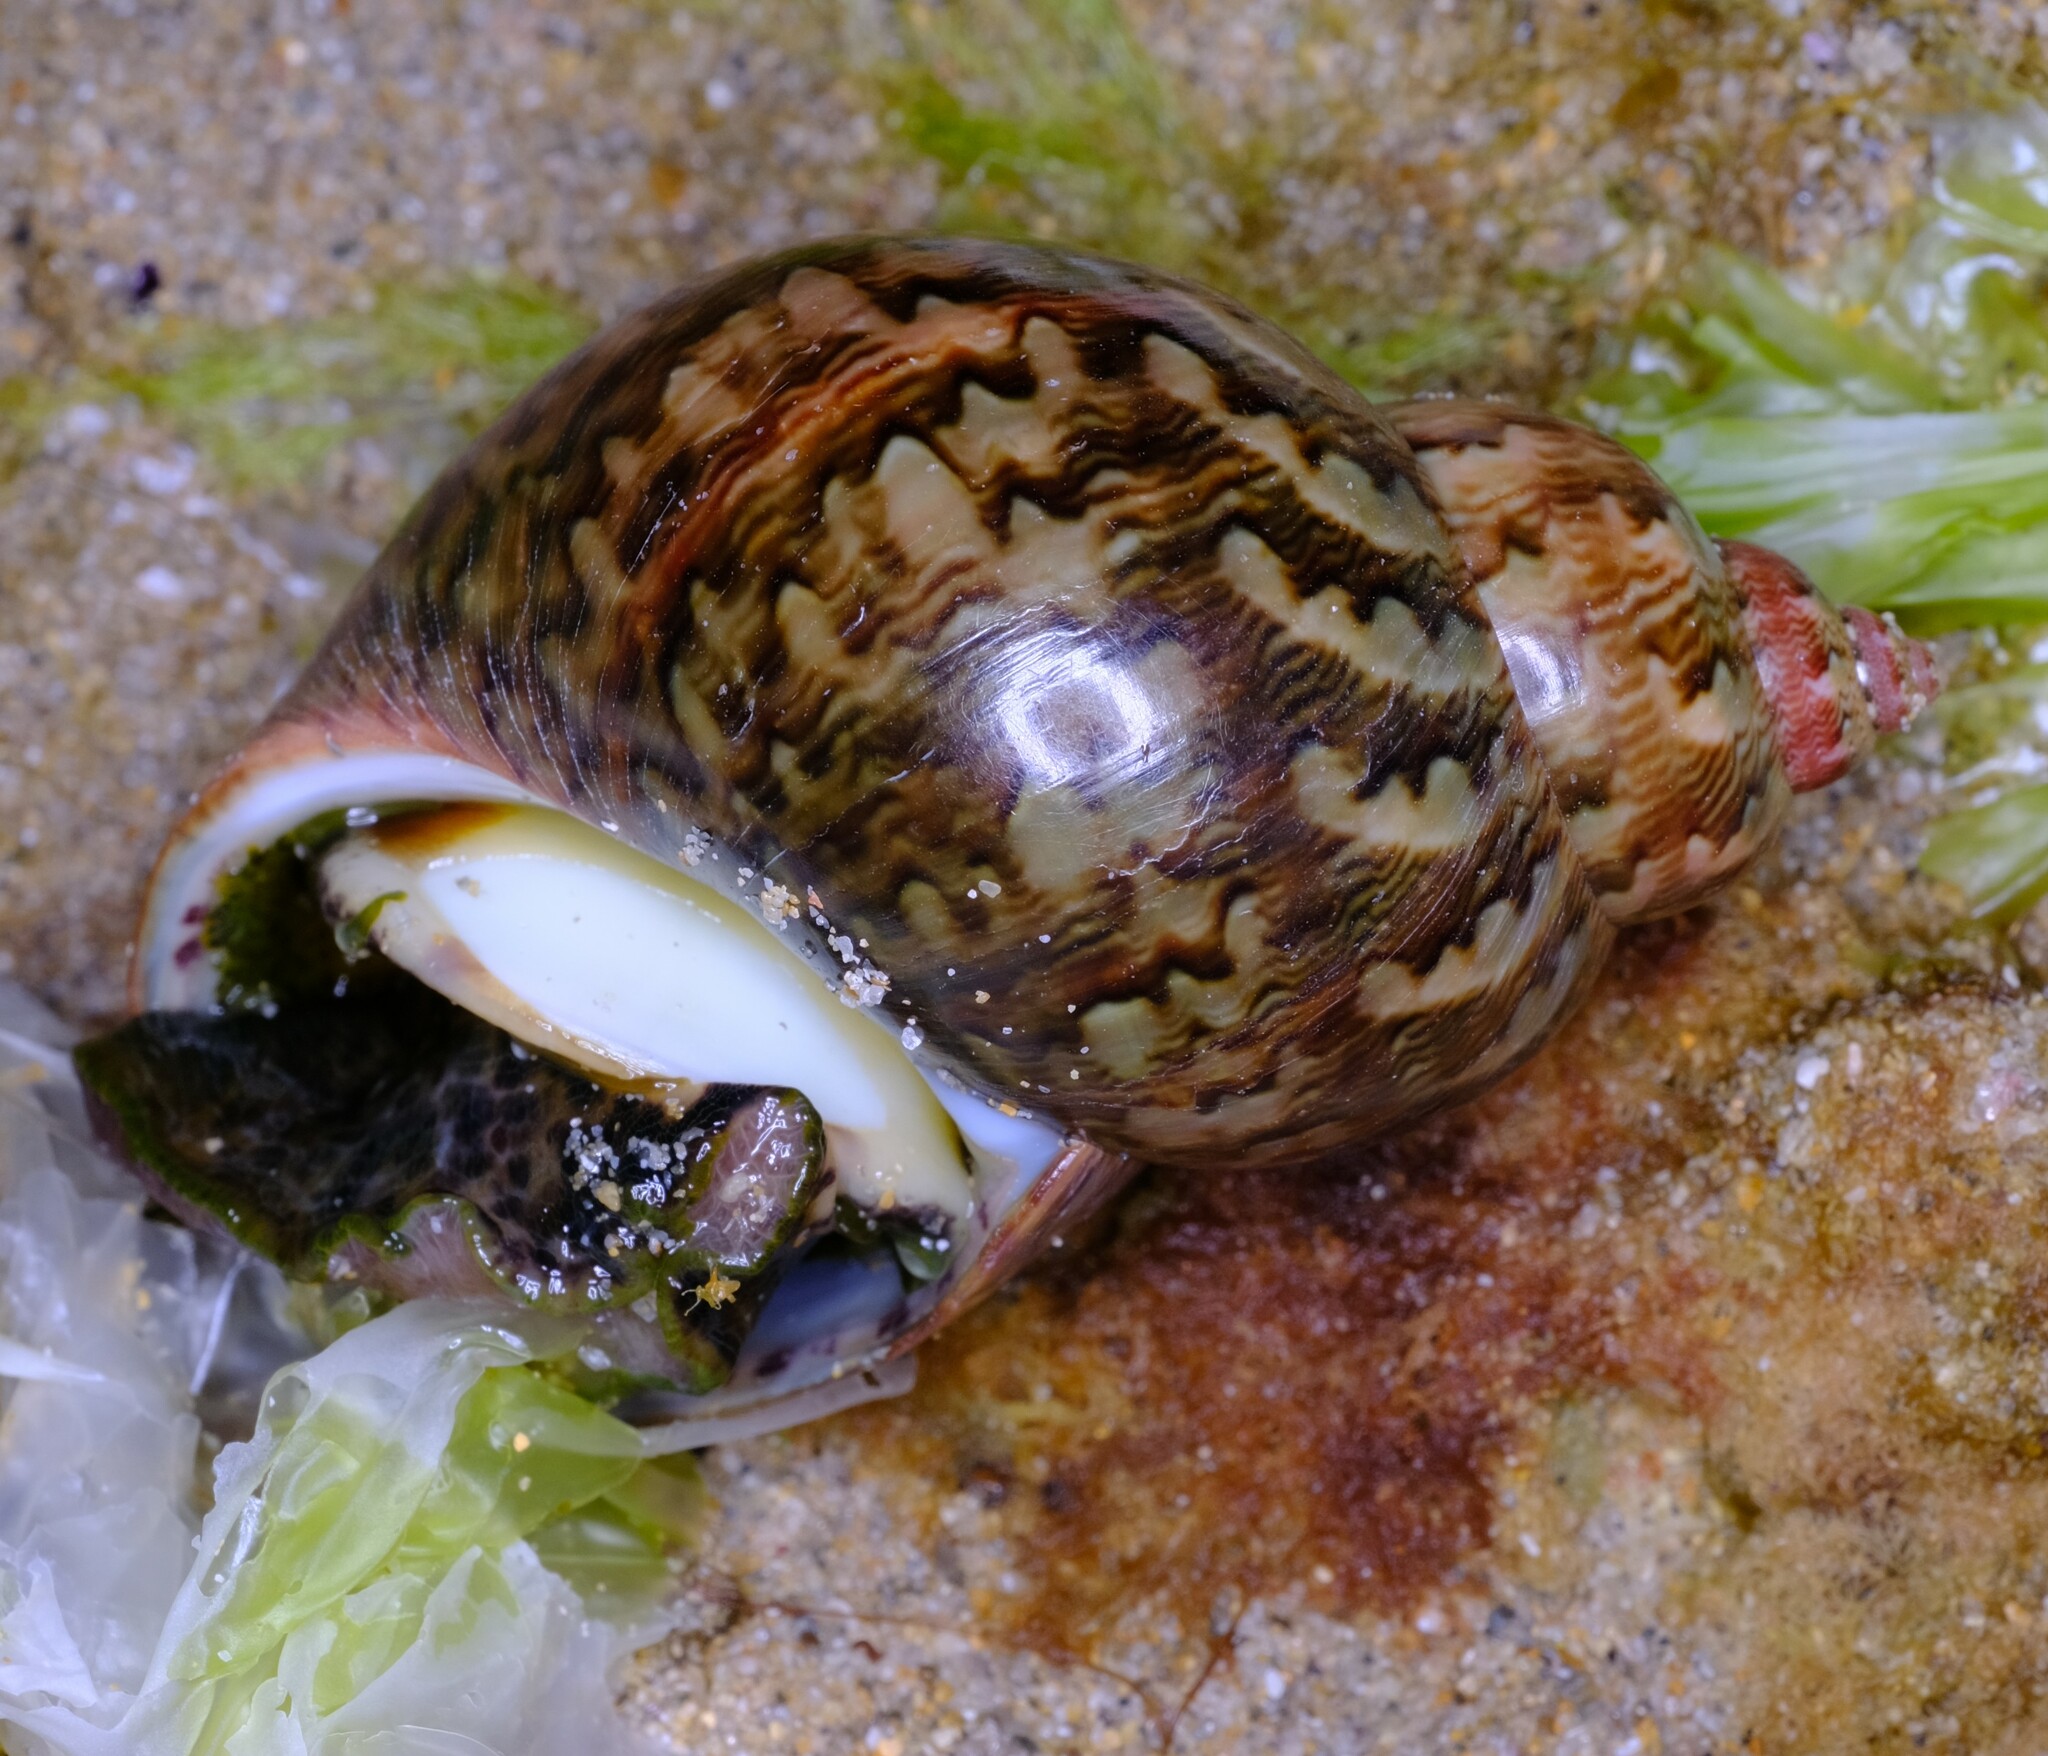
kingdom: Animalia
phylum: Mollusca
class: Gastropoda
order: Trochida
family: Phasianellidae
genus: Phasianella
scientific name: Phasianella ventricosa
